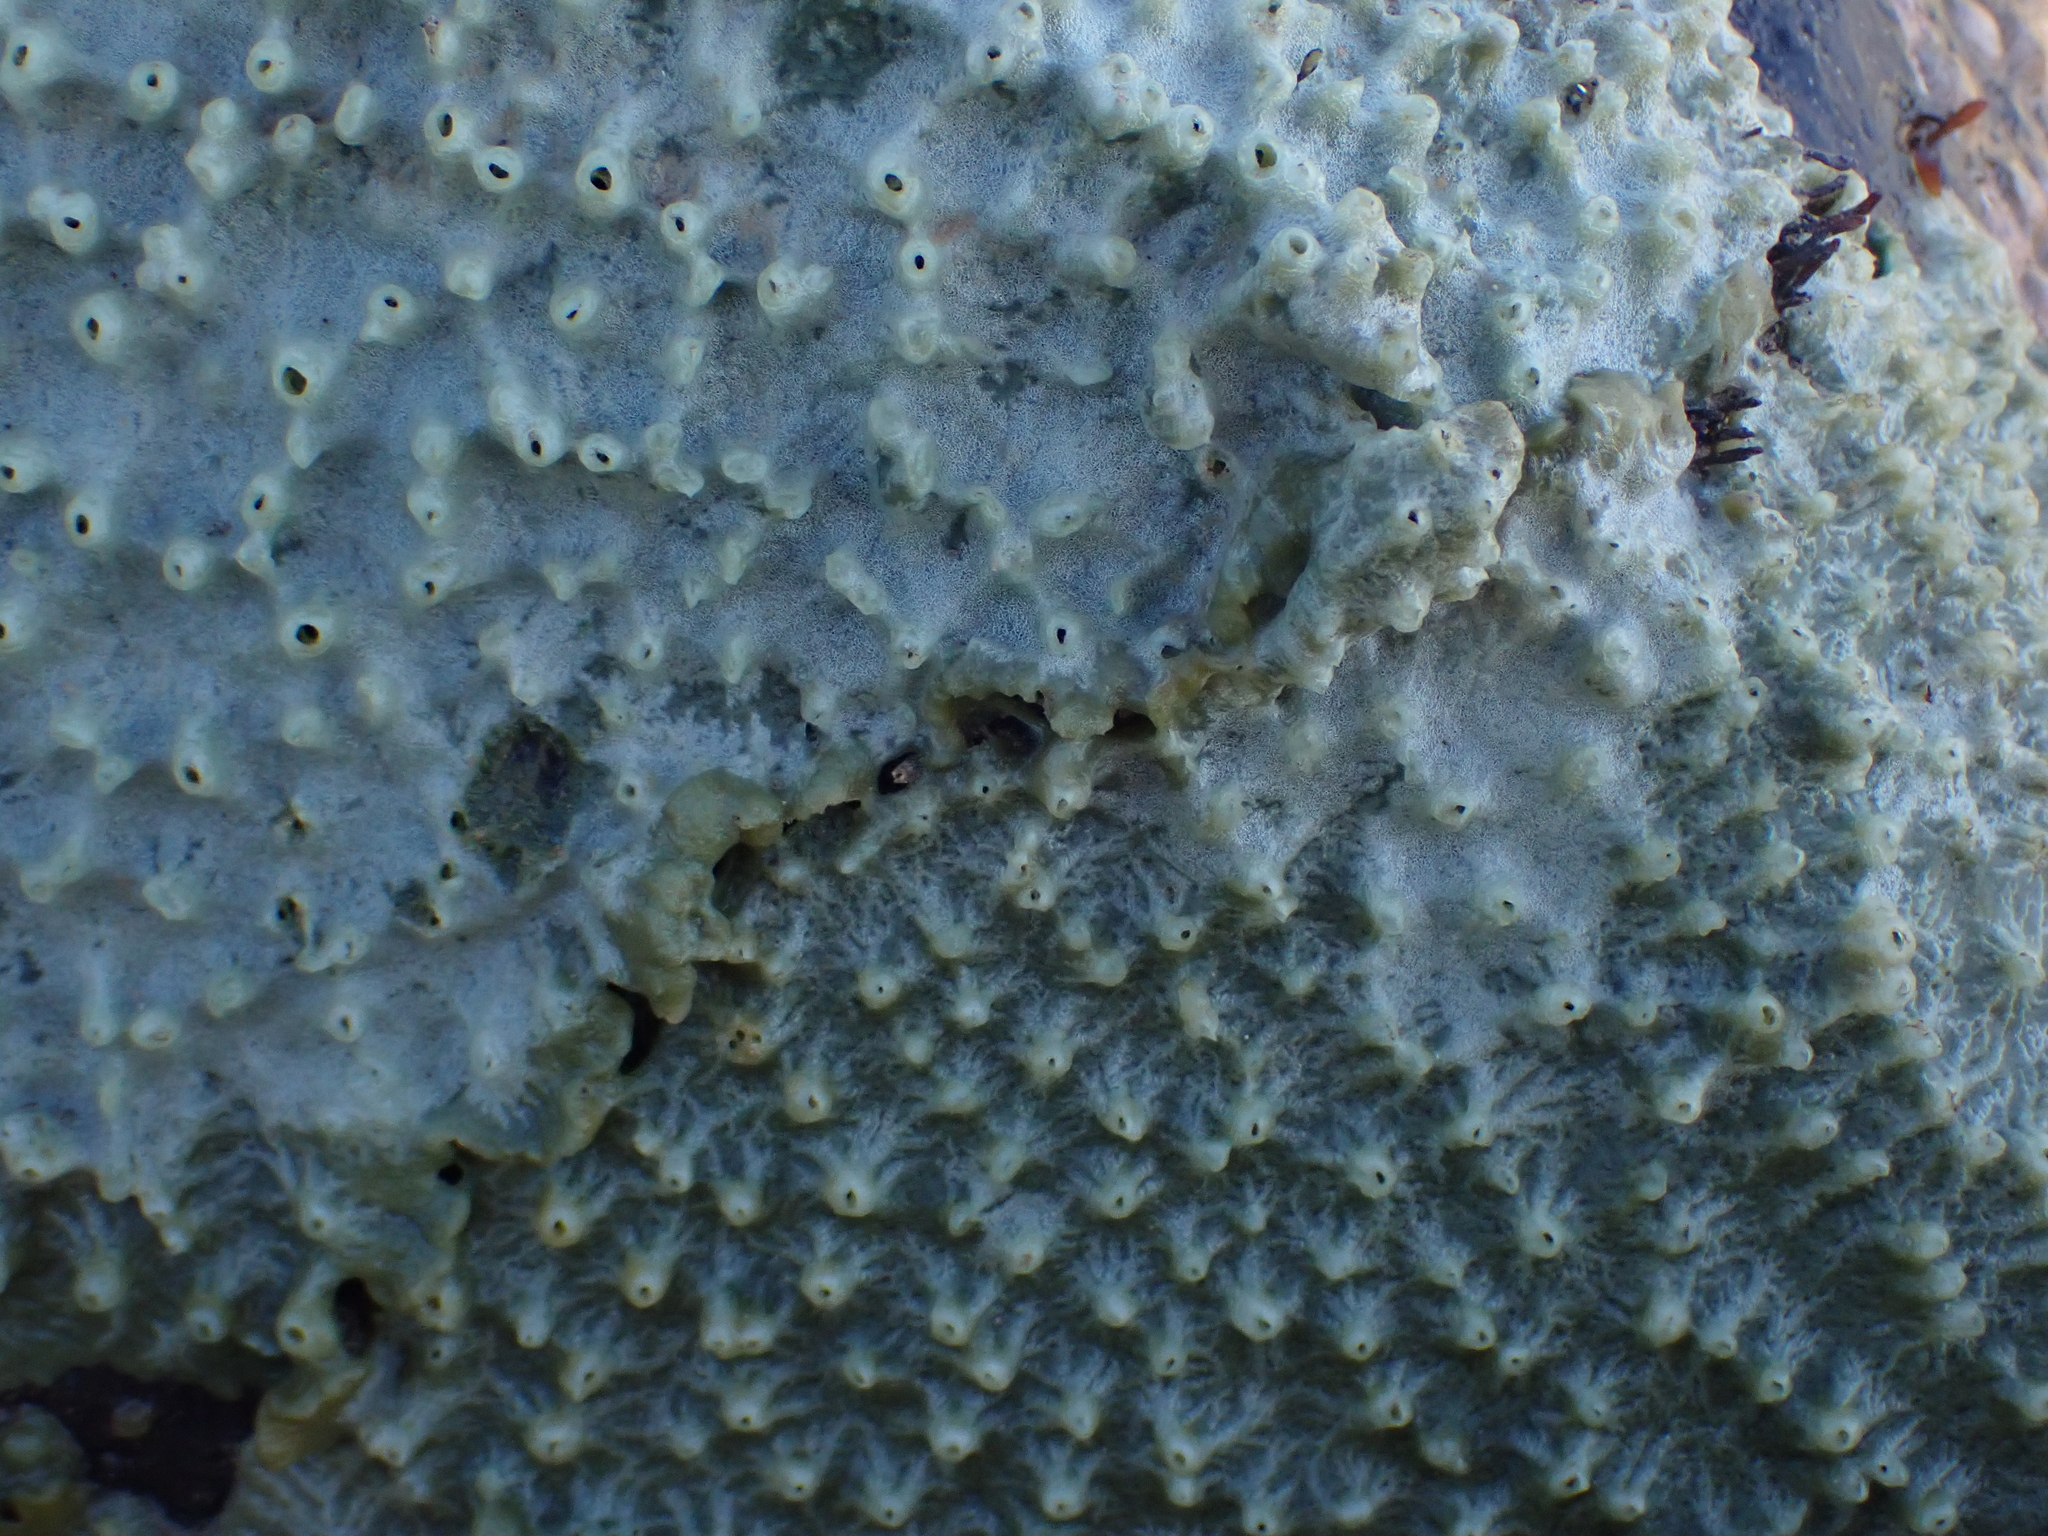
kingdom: Animalia
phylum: Porifera
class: Demospongiae
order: Suberitida
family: Halichondriidae
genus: Halichondria
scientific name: Halichondria panicea
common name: Breadcrumb sponge
